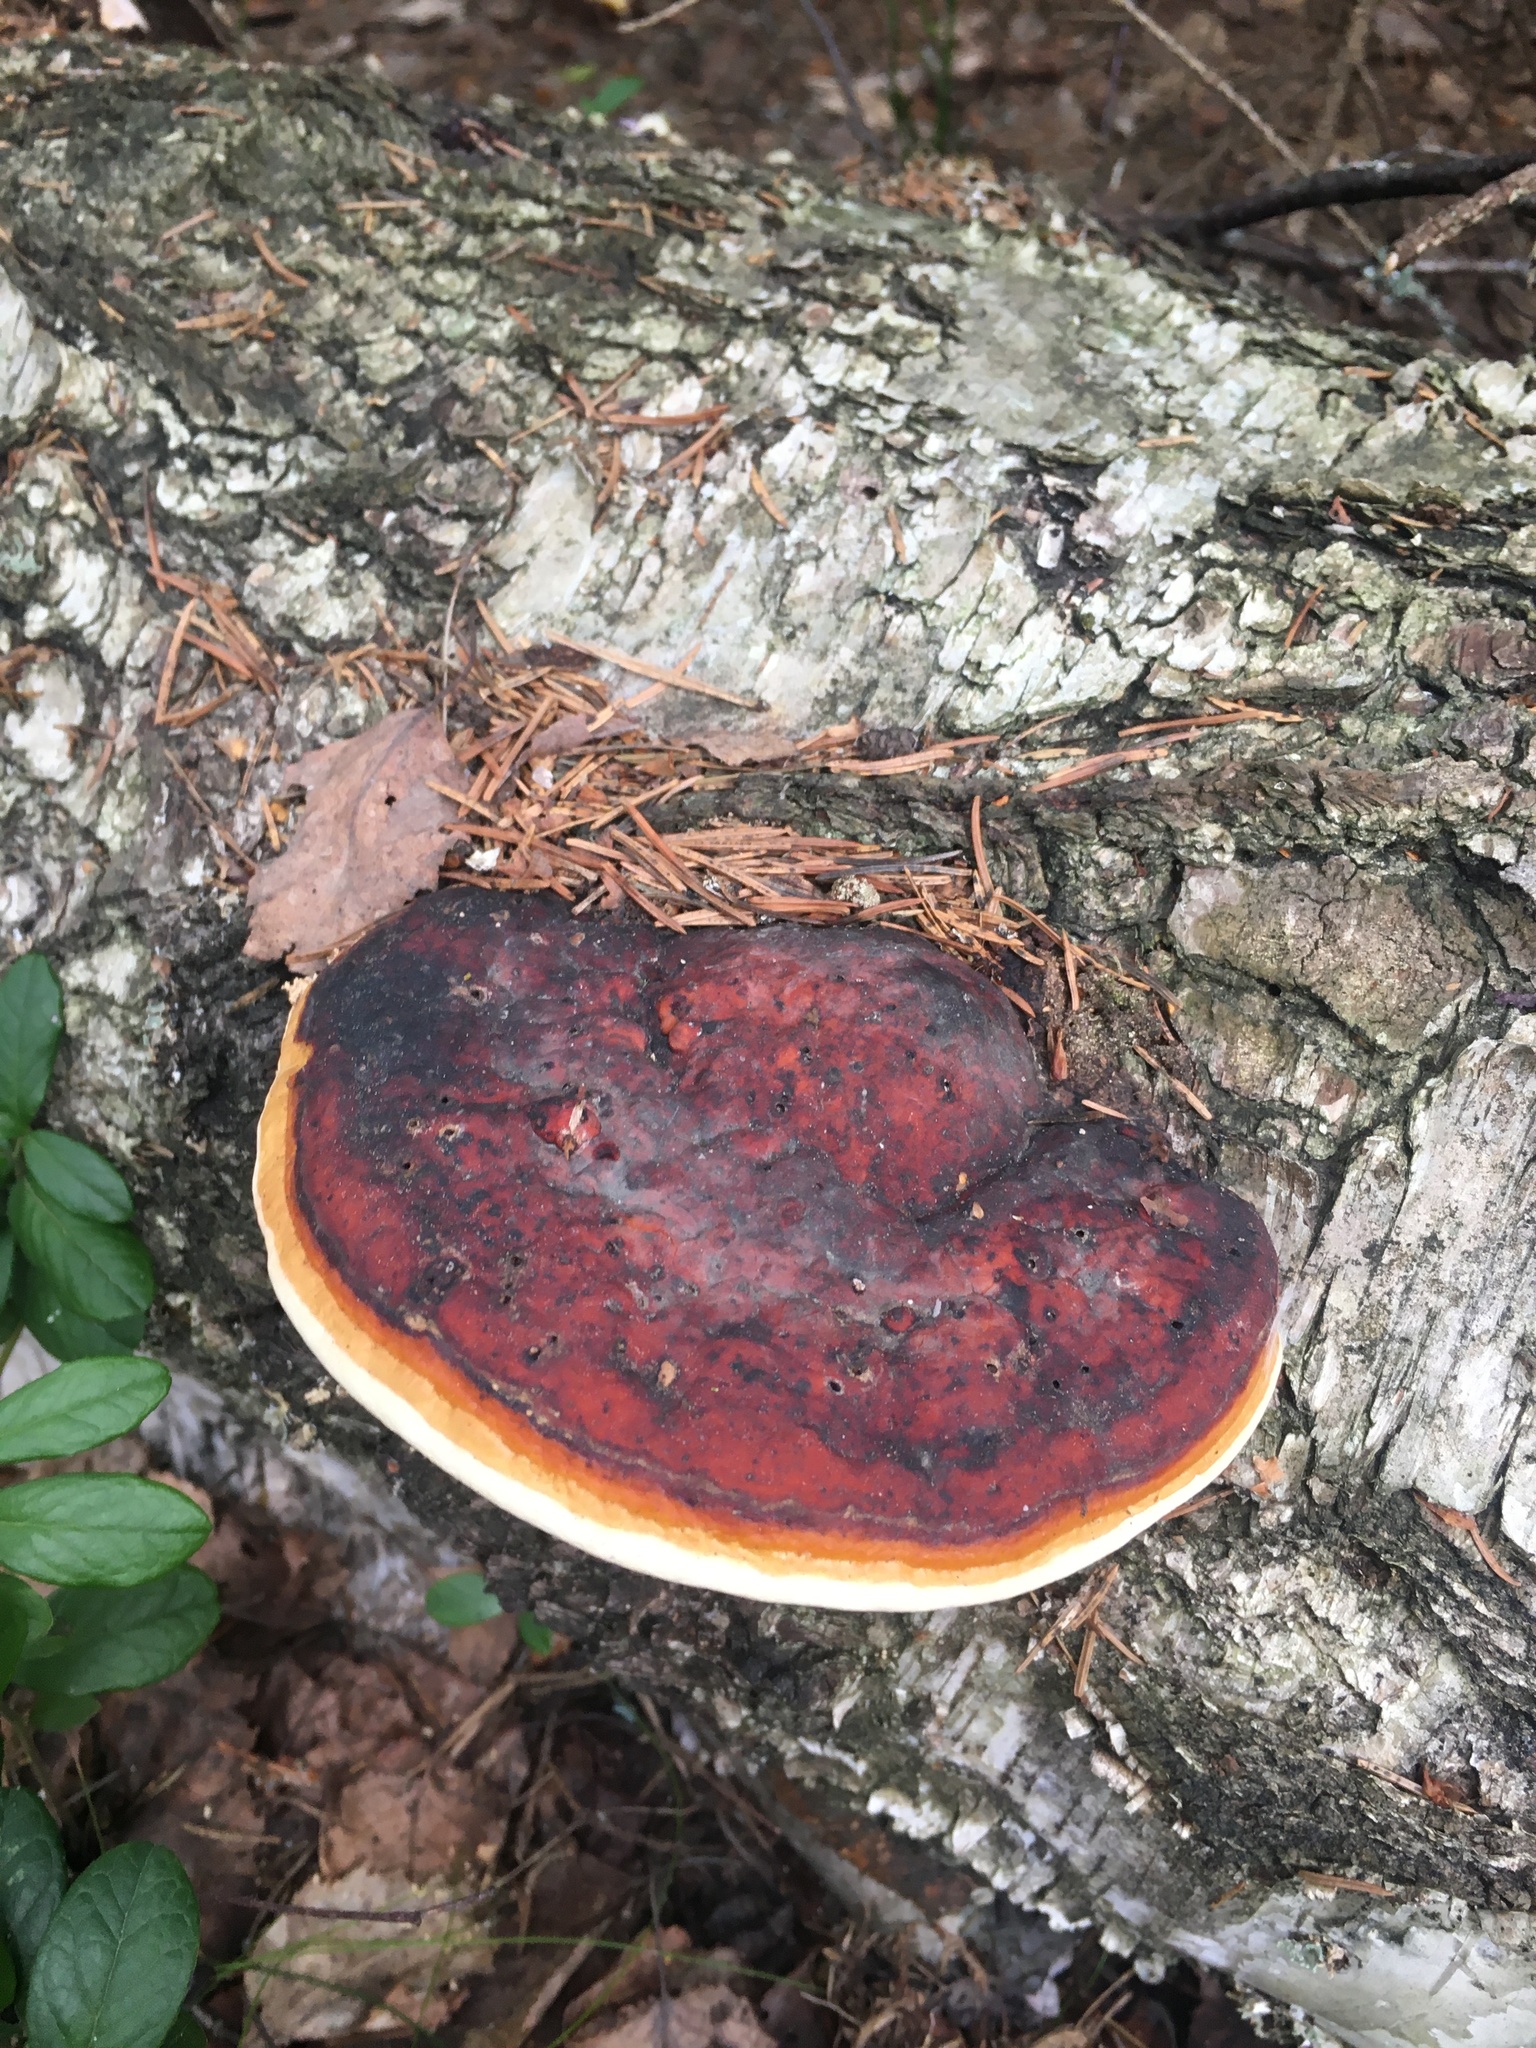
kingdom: Fungi
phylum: Basidiomycota
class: Agaricomycetes
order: Polyporales
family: Fomitopsidaceae
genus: Fomitopsis
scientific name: Fomitopsis pinicola
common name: Red-belted bracket
